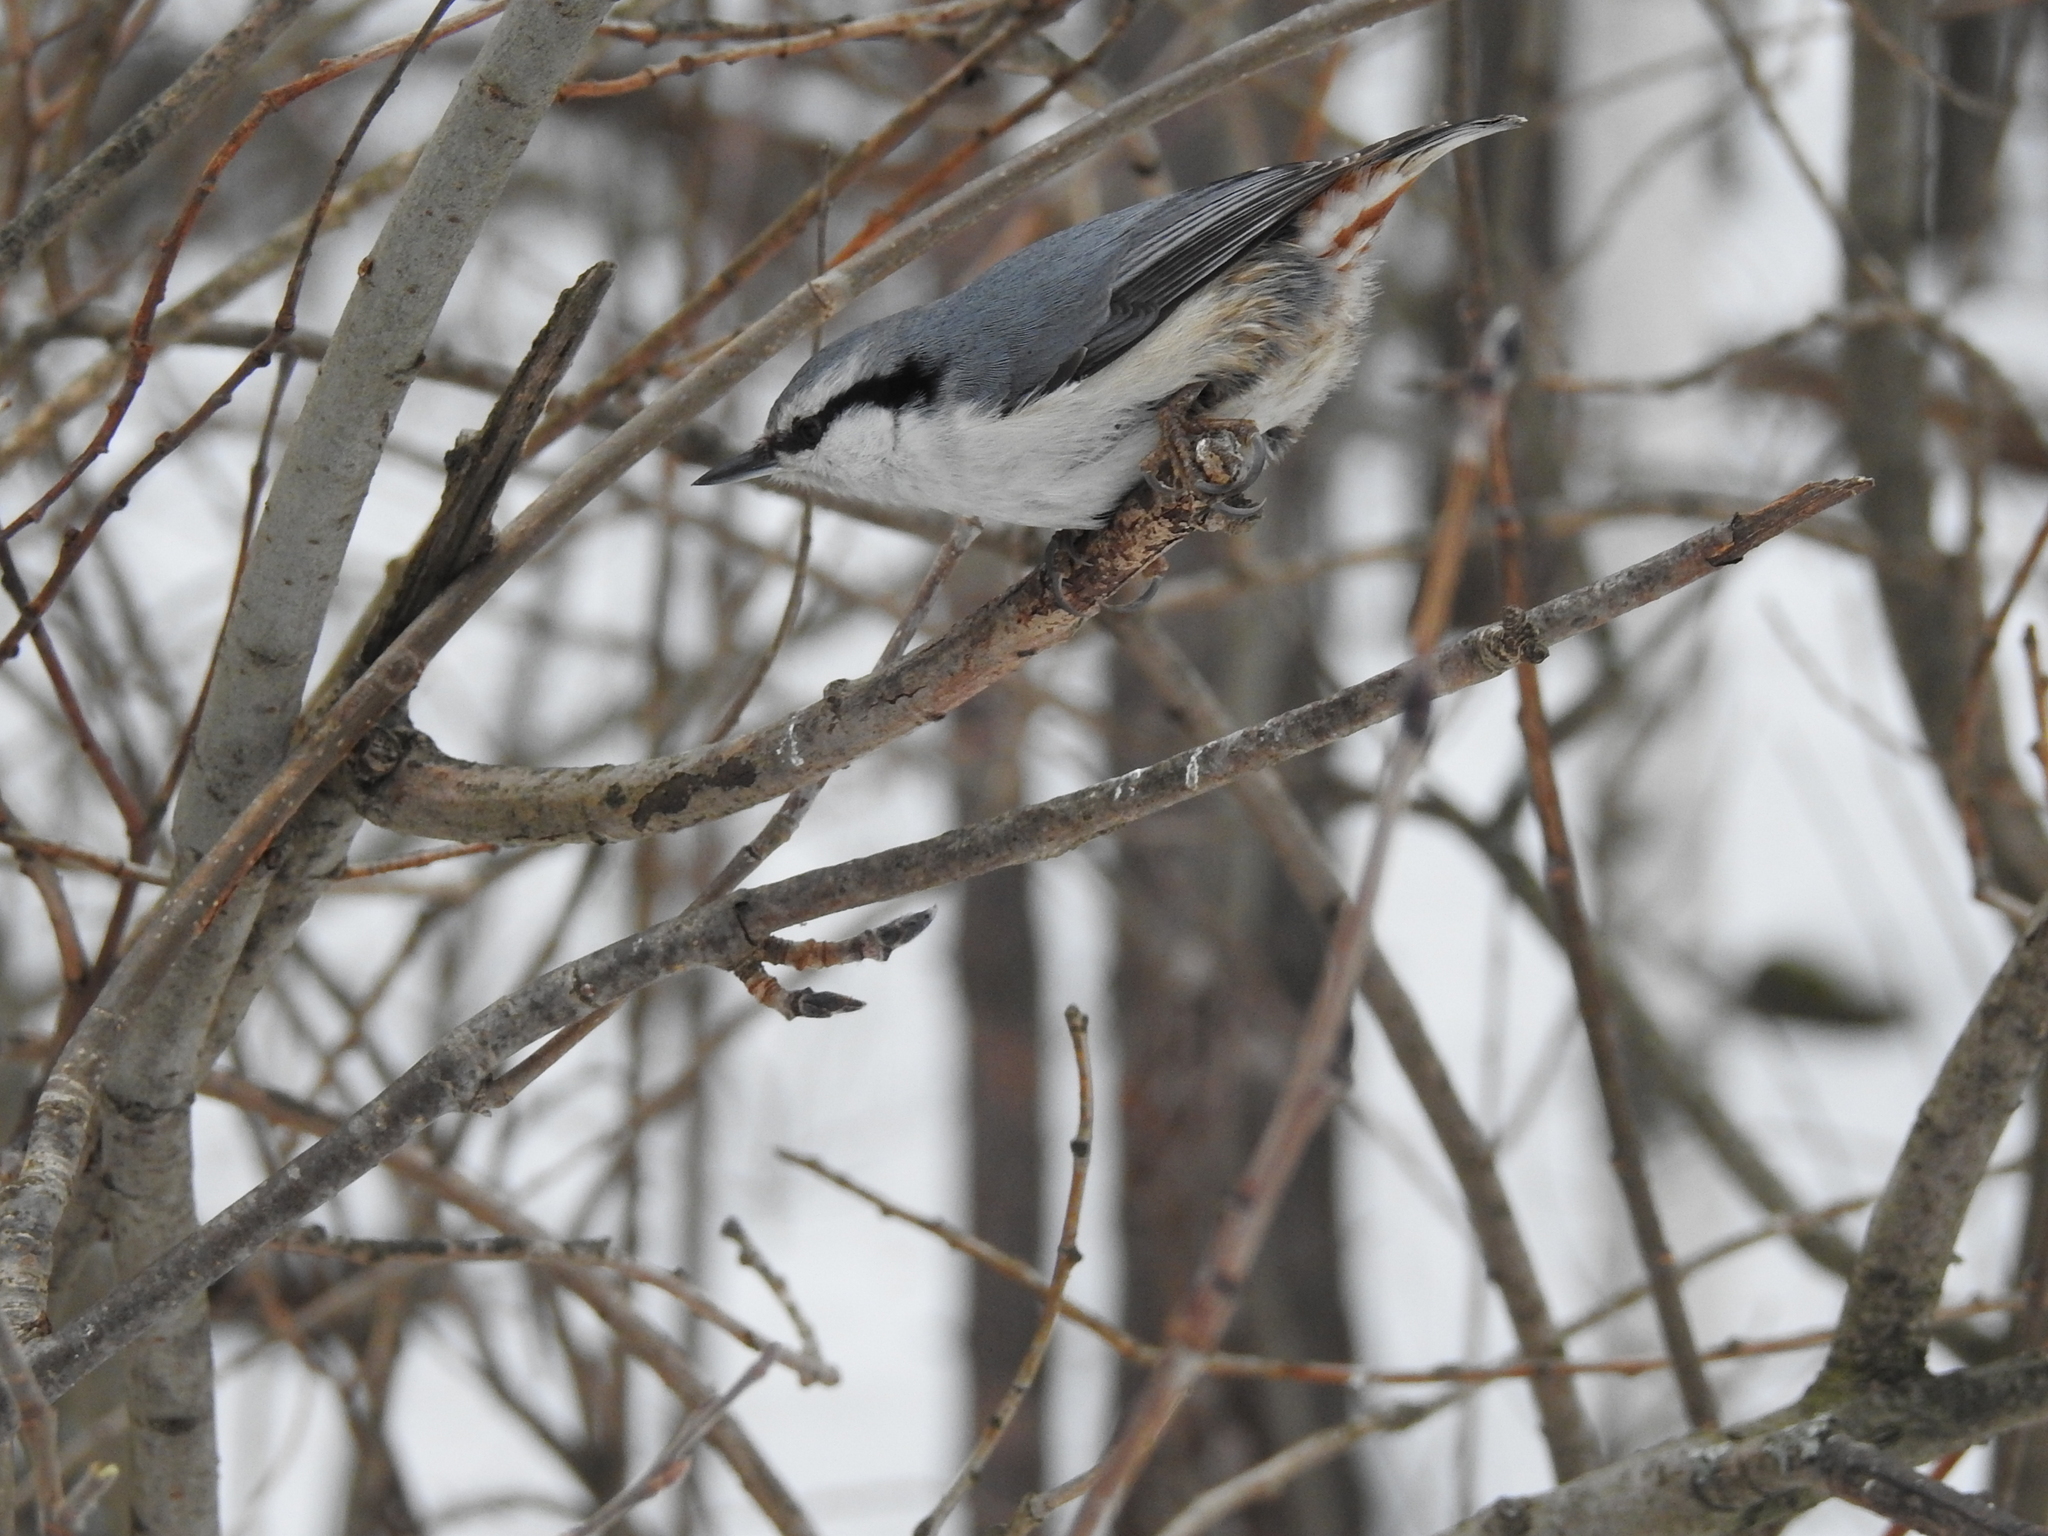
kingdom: Animalia
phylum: Chordata
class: Aves
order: Passeriformes
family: Sittidae
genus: Sitta
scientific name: Sitta europaea
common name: Eurasian nuthatch
